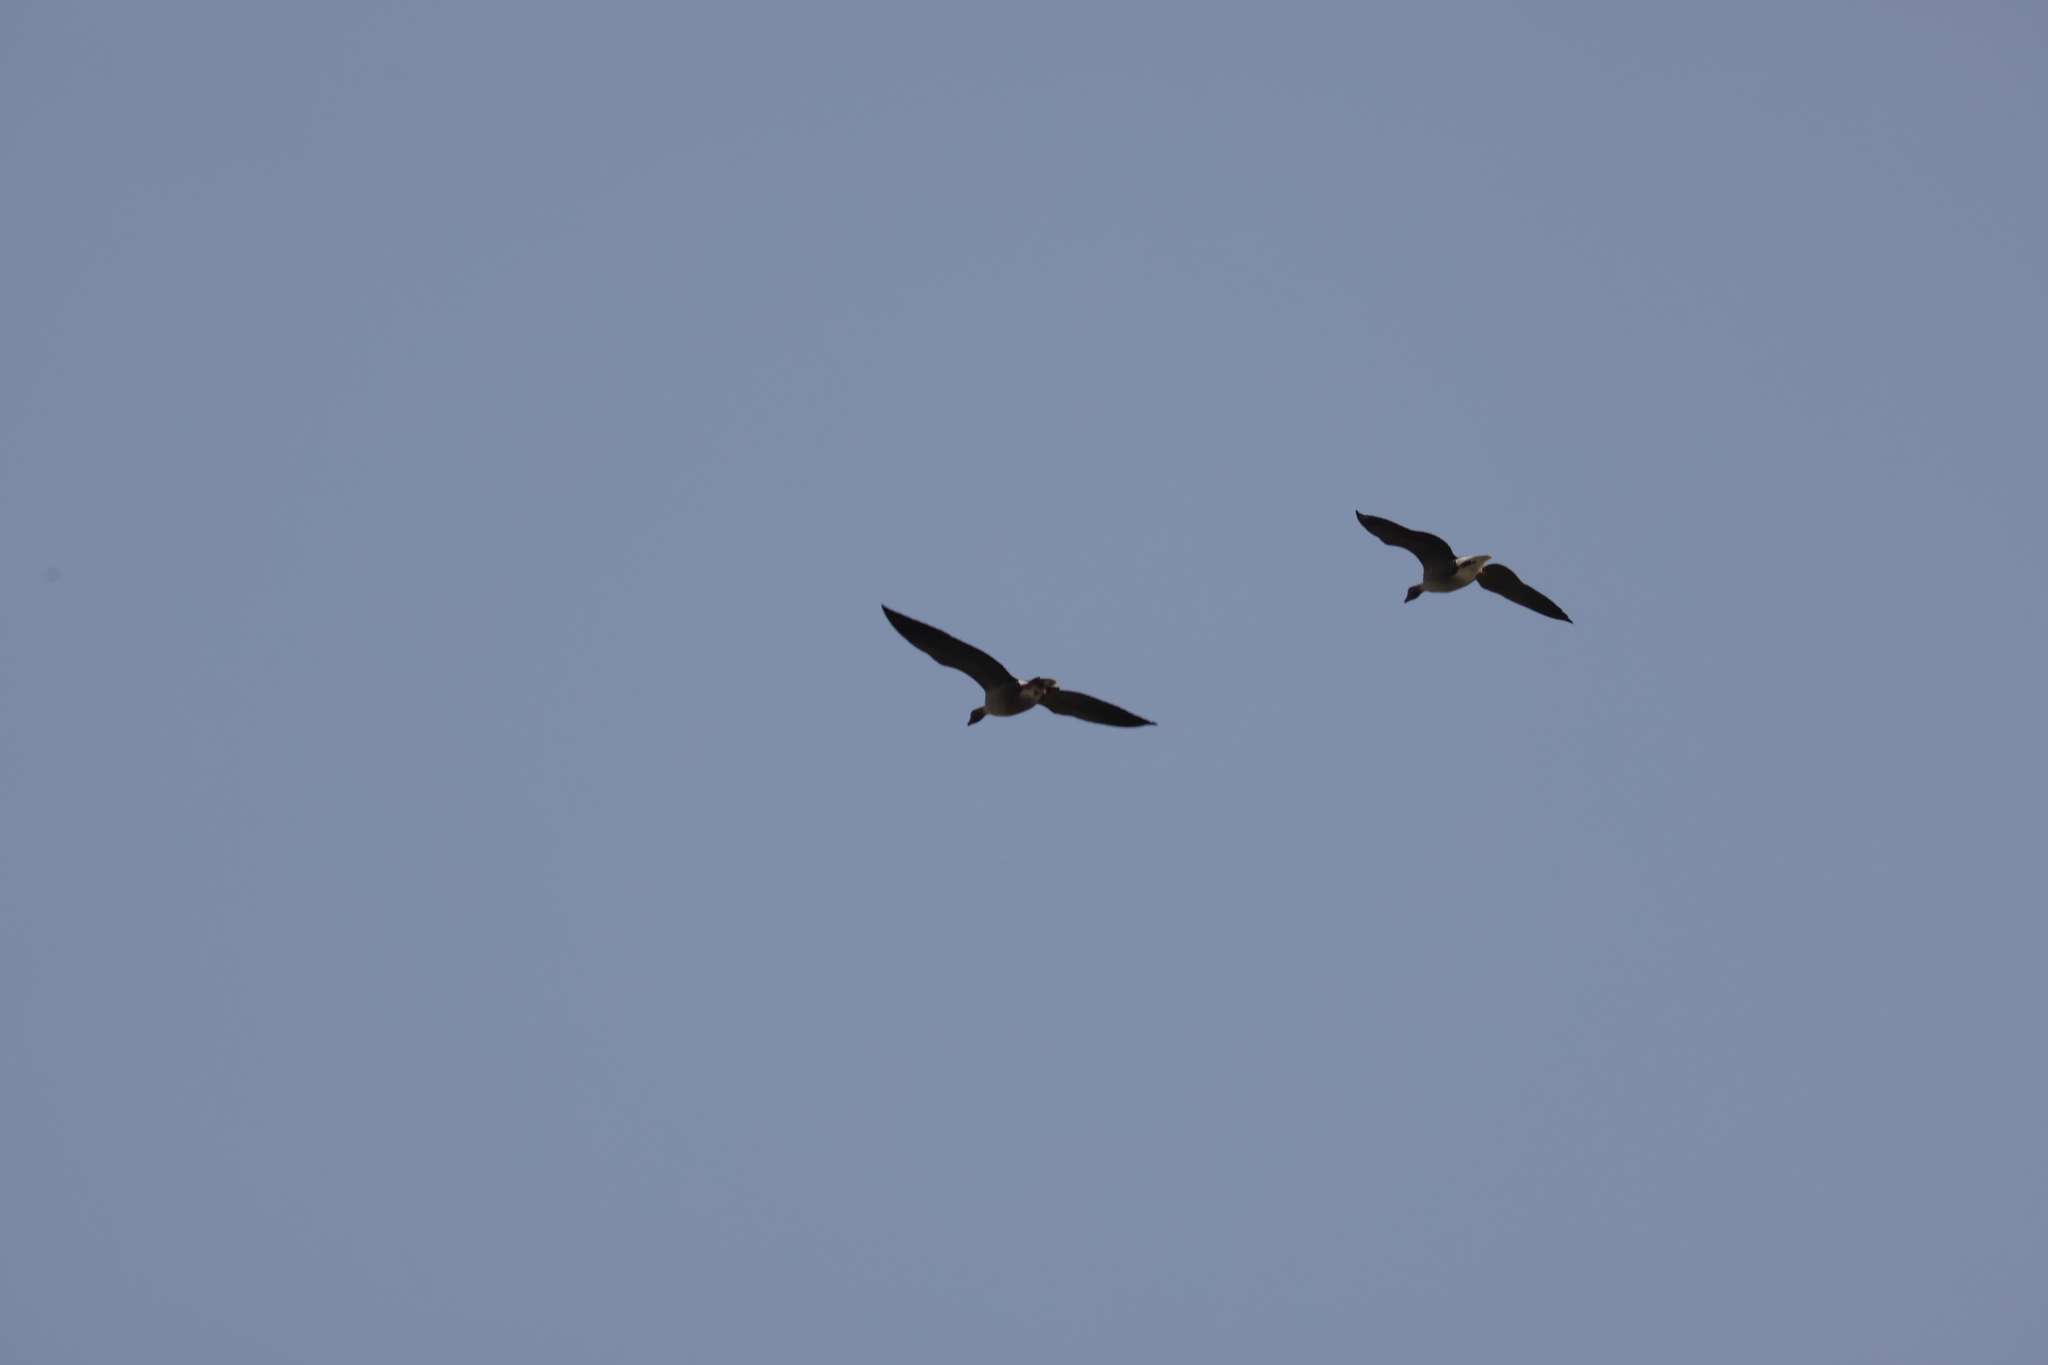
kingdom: Animalia
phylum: Chordata
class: Aves
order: Anseriformes
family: Anatidae
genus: Anser
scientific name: Anser brachyrhynchus
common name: Pink-footed goose
